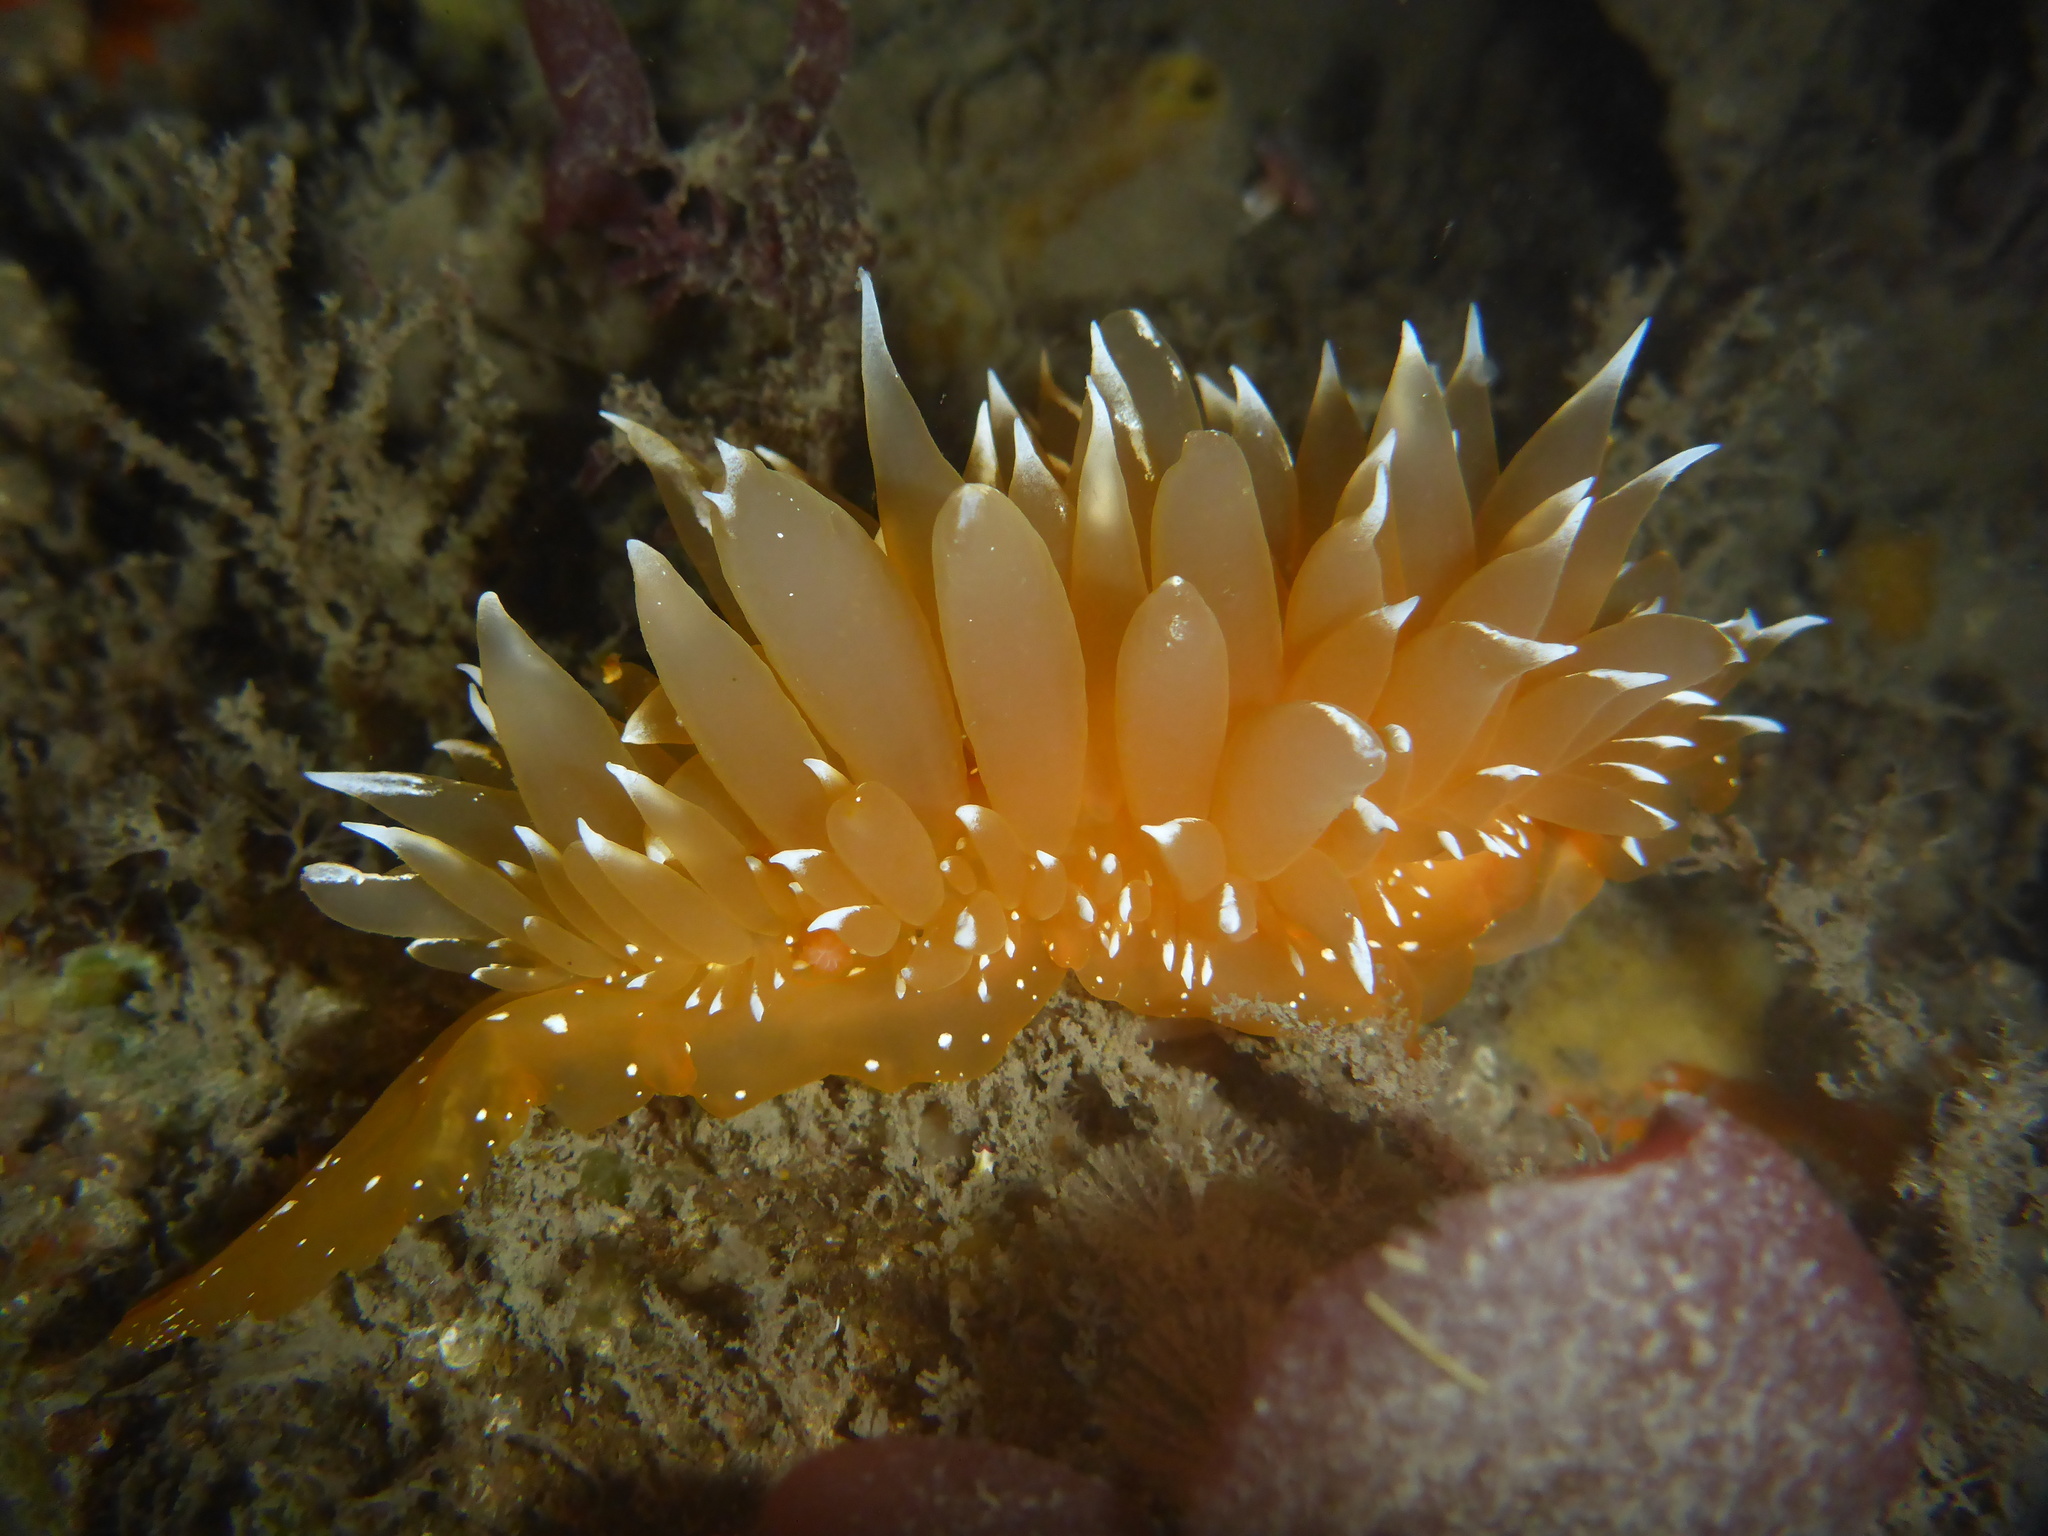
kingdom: Animalia
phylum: Mollusca
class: Gastropoda
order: Nudibranchia
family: Dironidae
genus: Dirona
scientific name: Dirona pellucida
